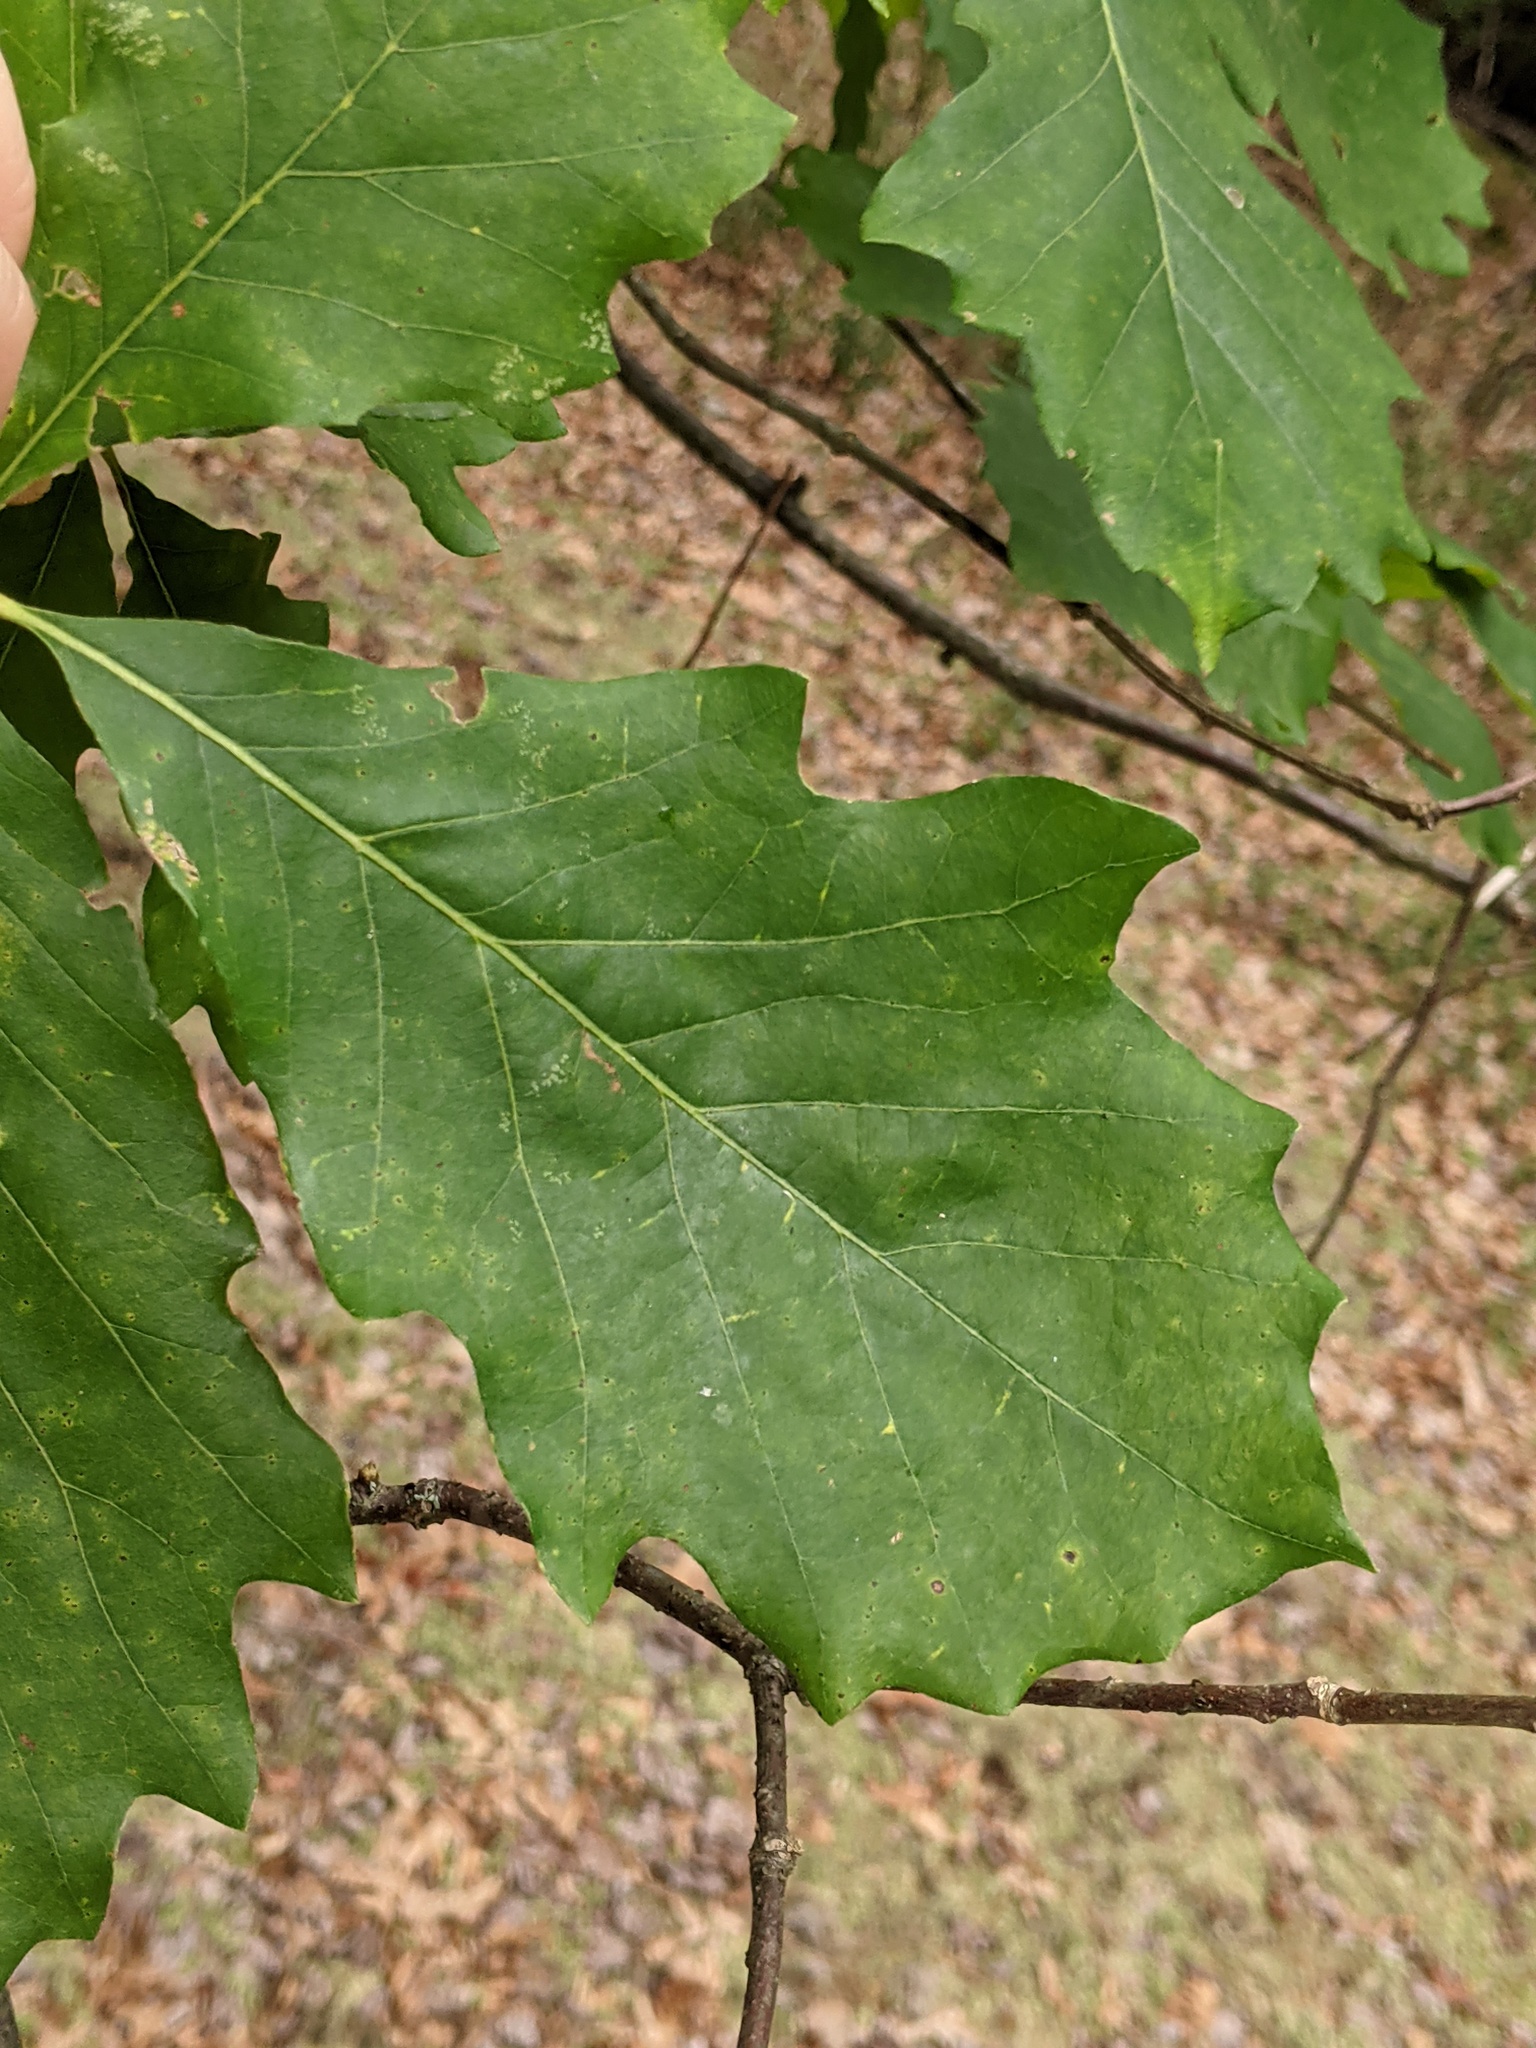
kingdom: Plantae
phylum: Tracheophyta
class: Magnoliopsida
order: Fagales
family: Fagaceae
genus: Quercus
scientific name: Quercus bicolor
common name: Swamp white oak
